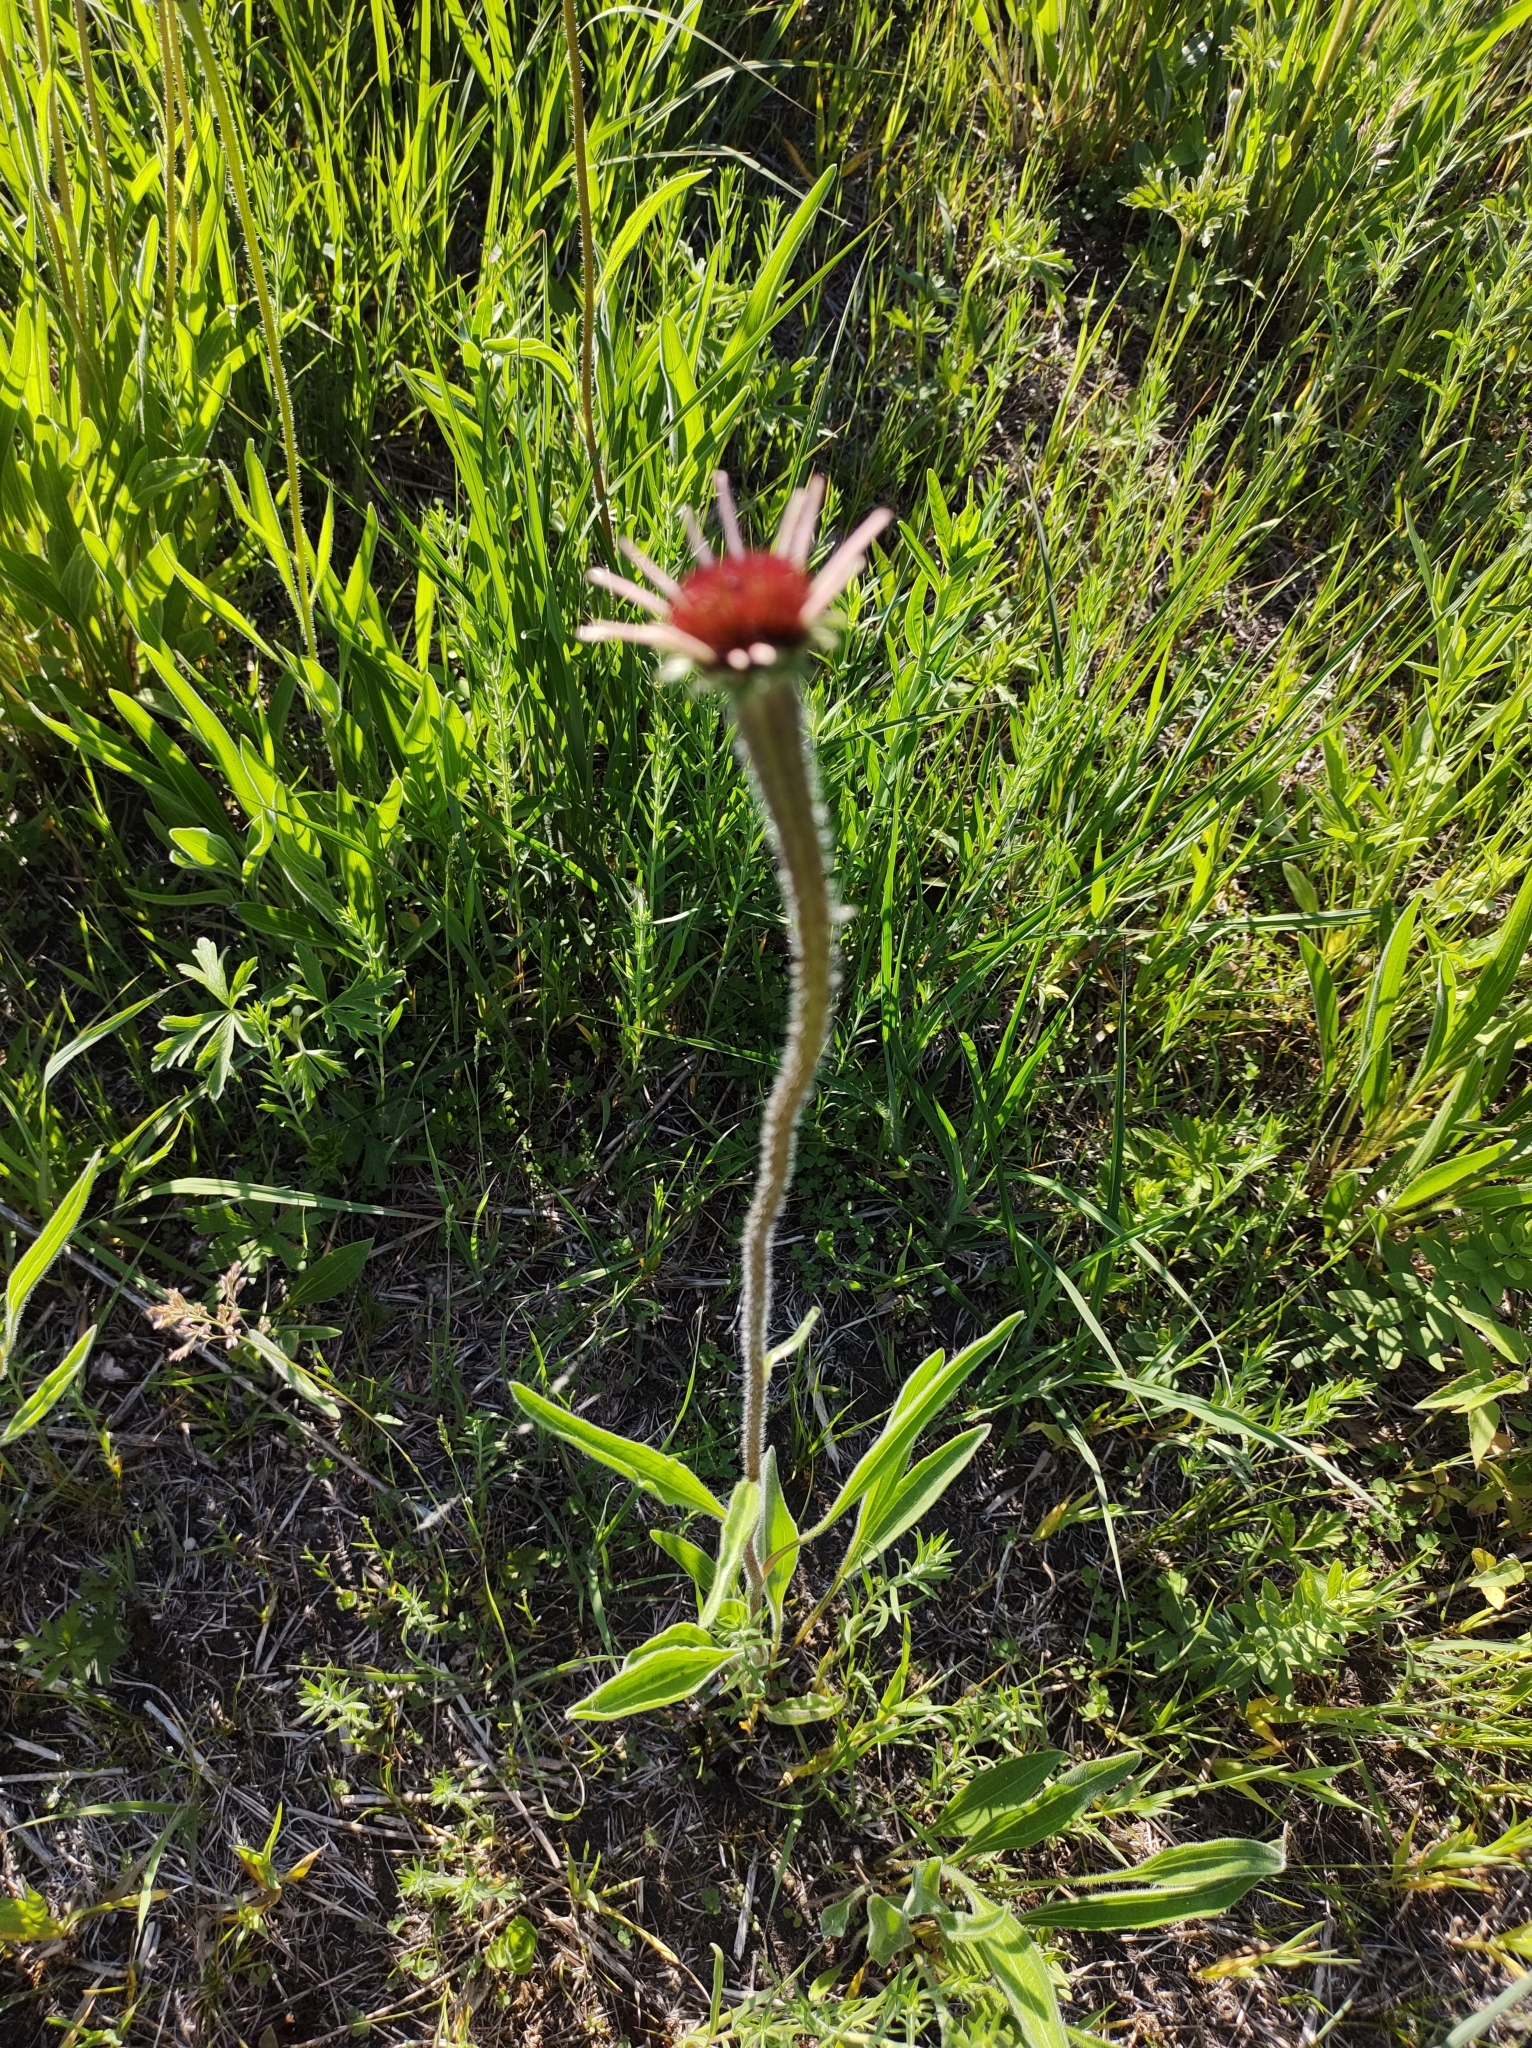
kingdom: Plantae
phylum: Tracheophyta
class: Magnoliopsida
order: Asterales
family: Asteraceae
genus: Echinacea
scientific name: Echinacea pallida
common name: Pale echinacea
